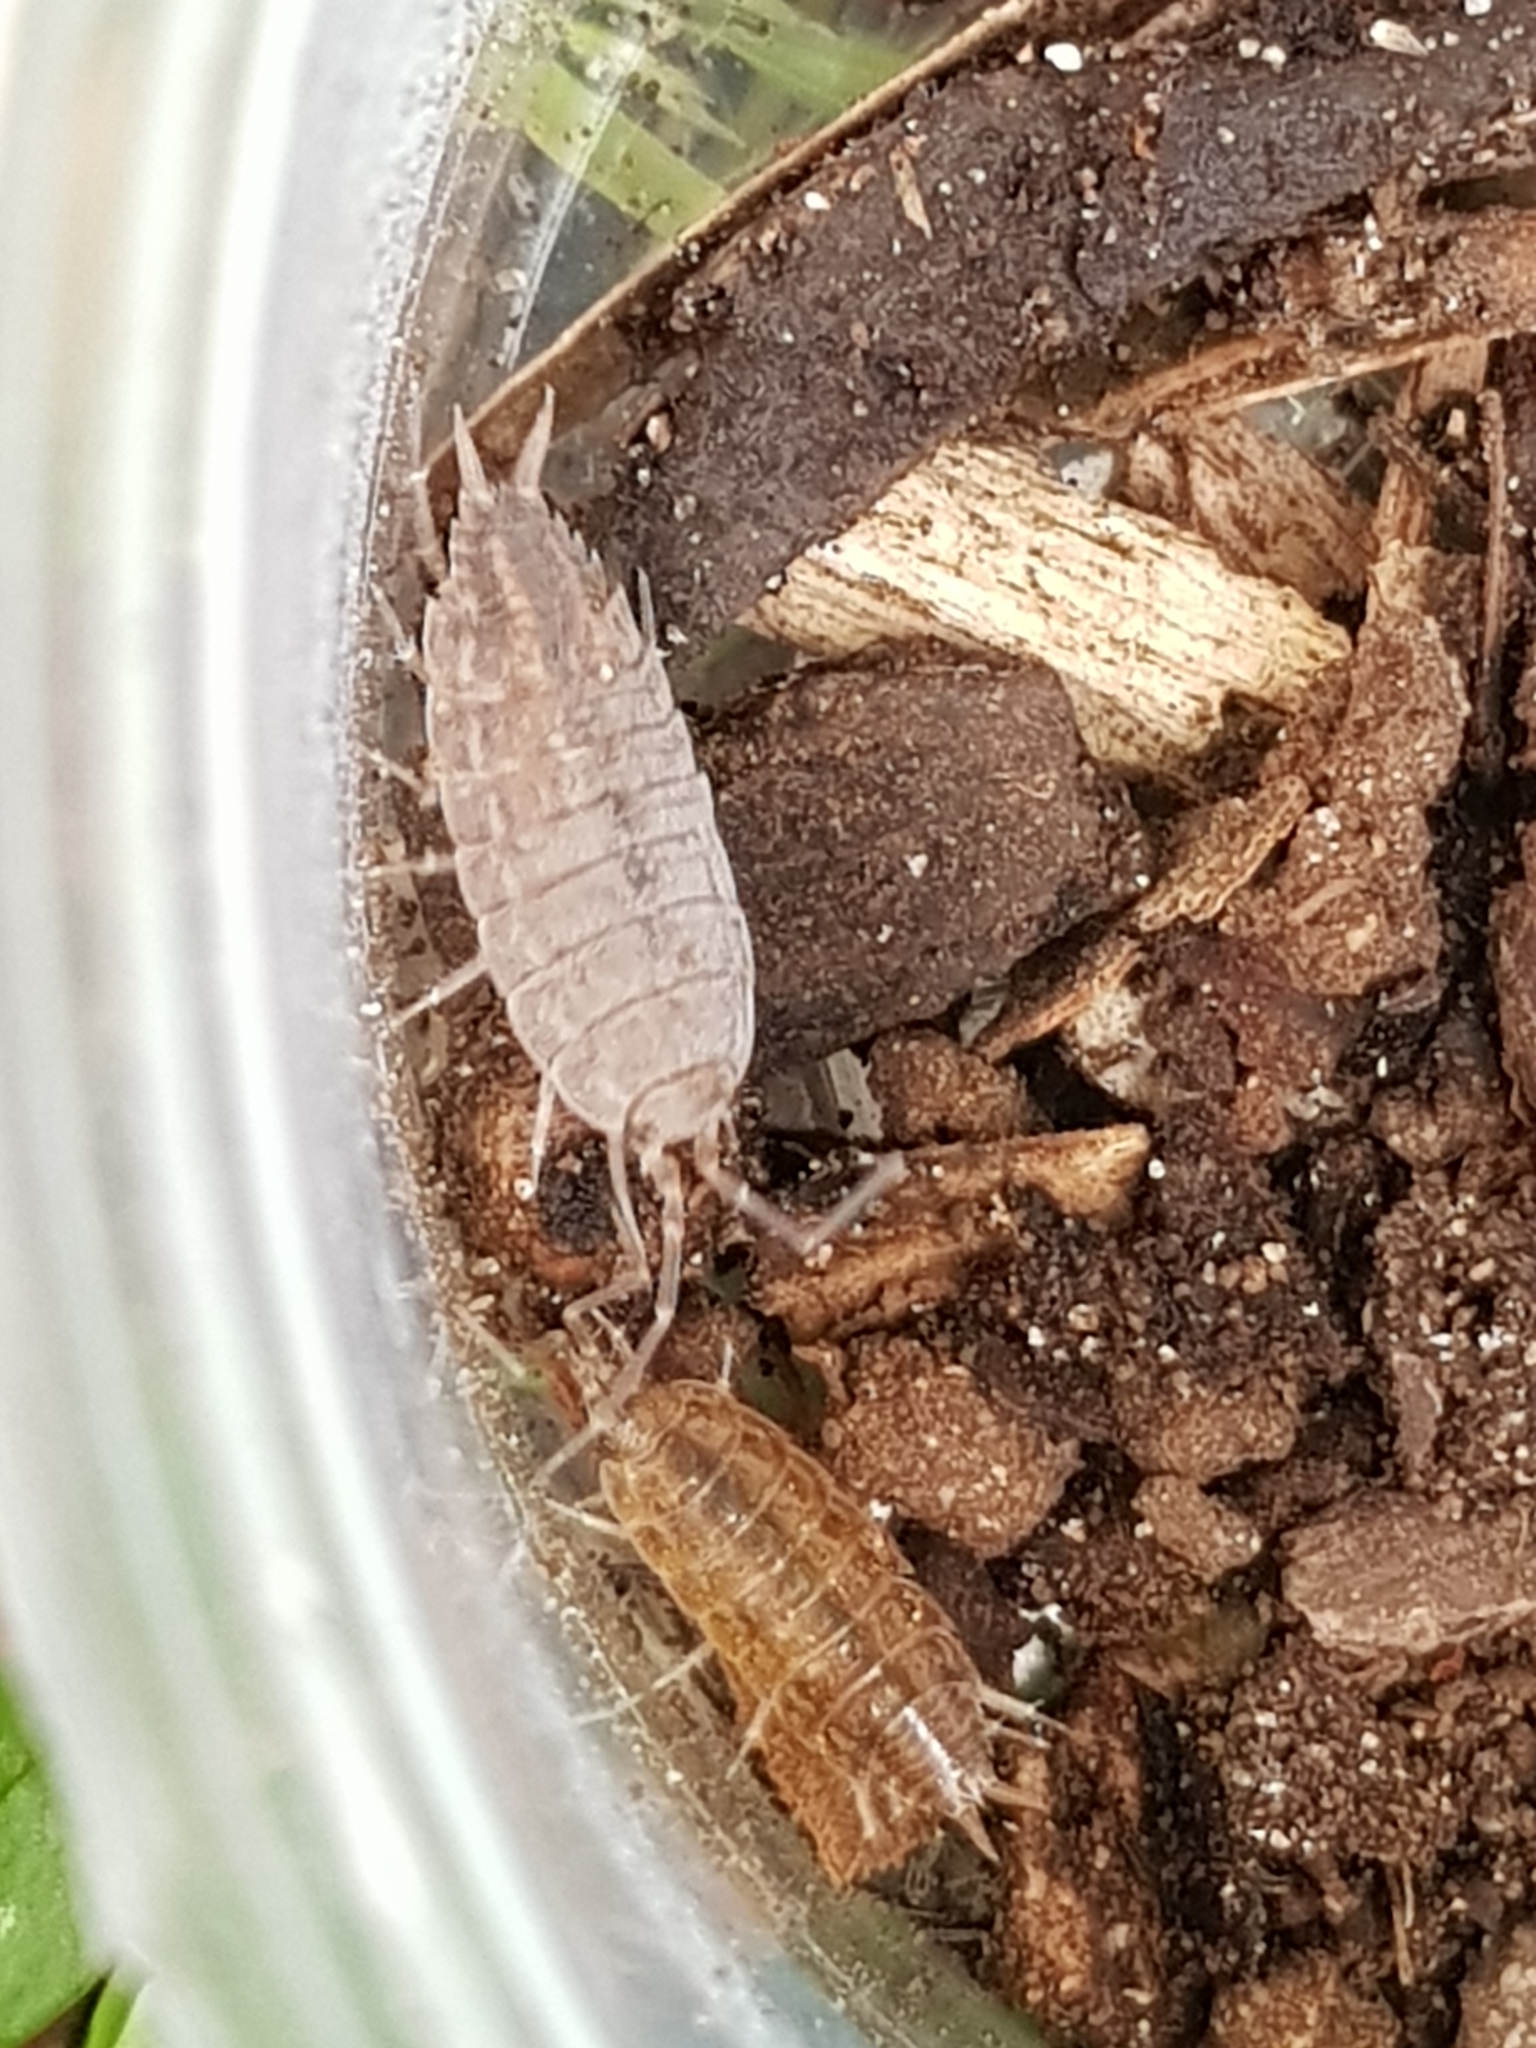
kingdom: Animalia
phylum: Arthropoda
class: Malacostraca
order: Isopoda
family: Porcellionidae
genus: Porcellionides
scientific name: Porcellionides sexfasciatus
